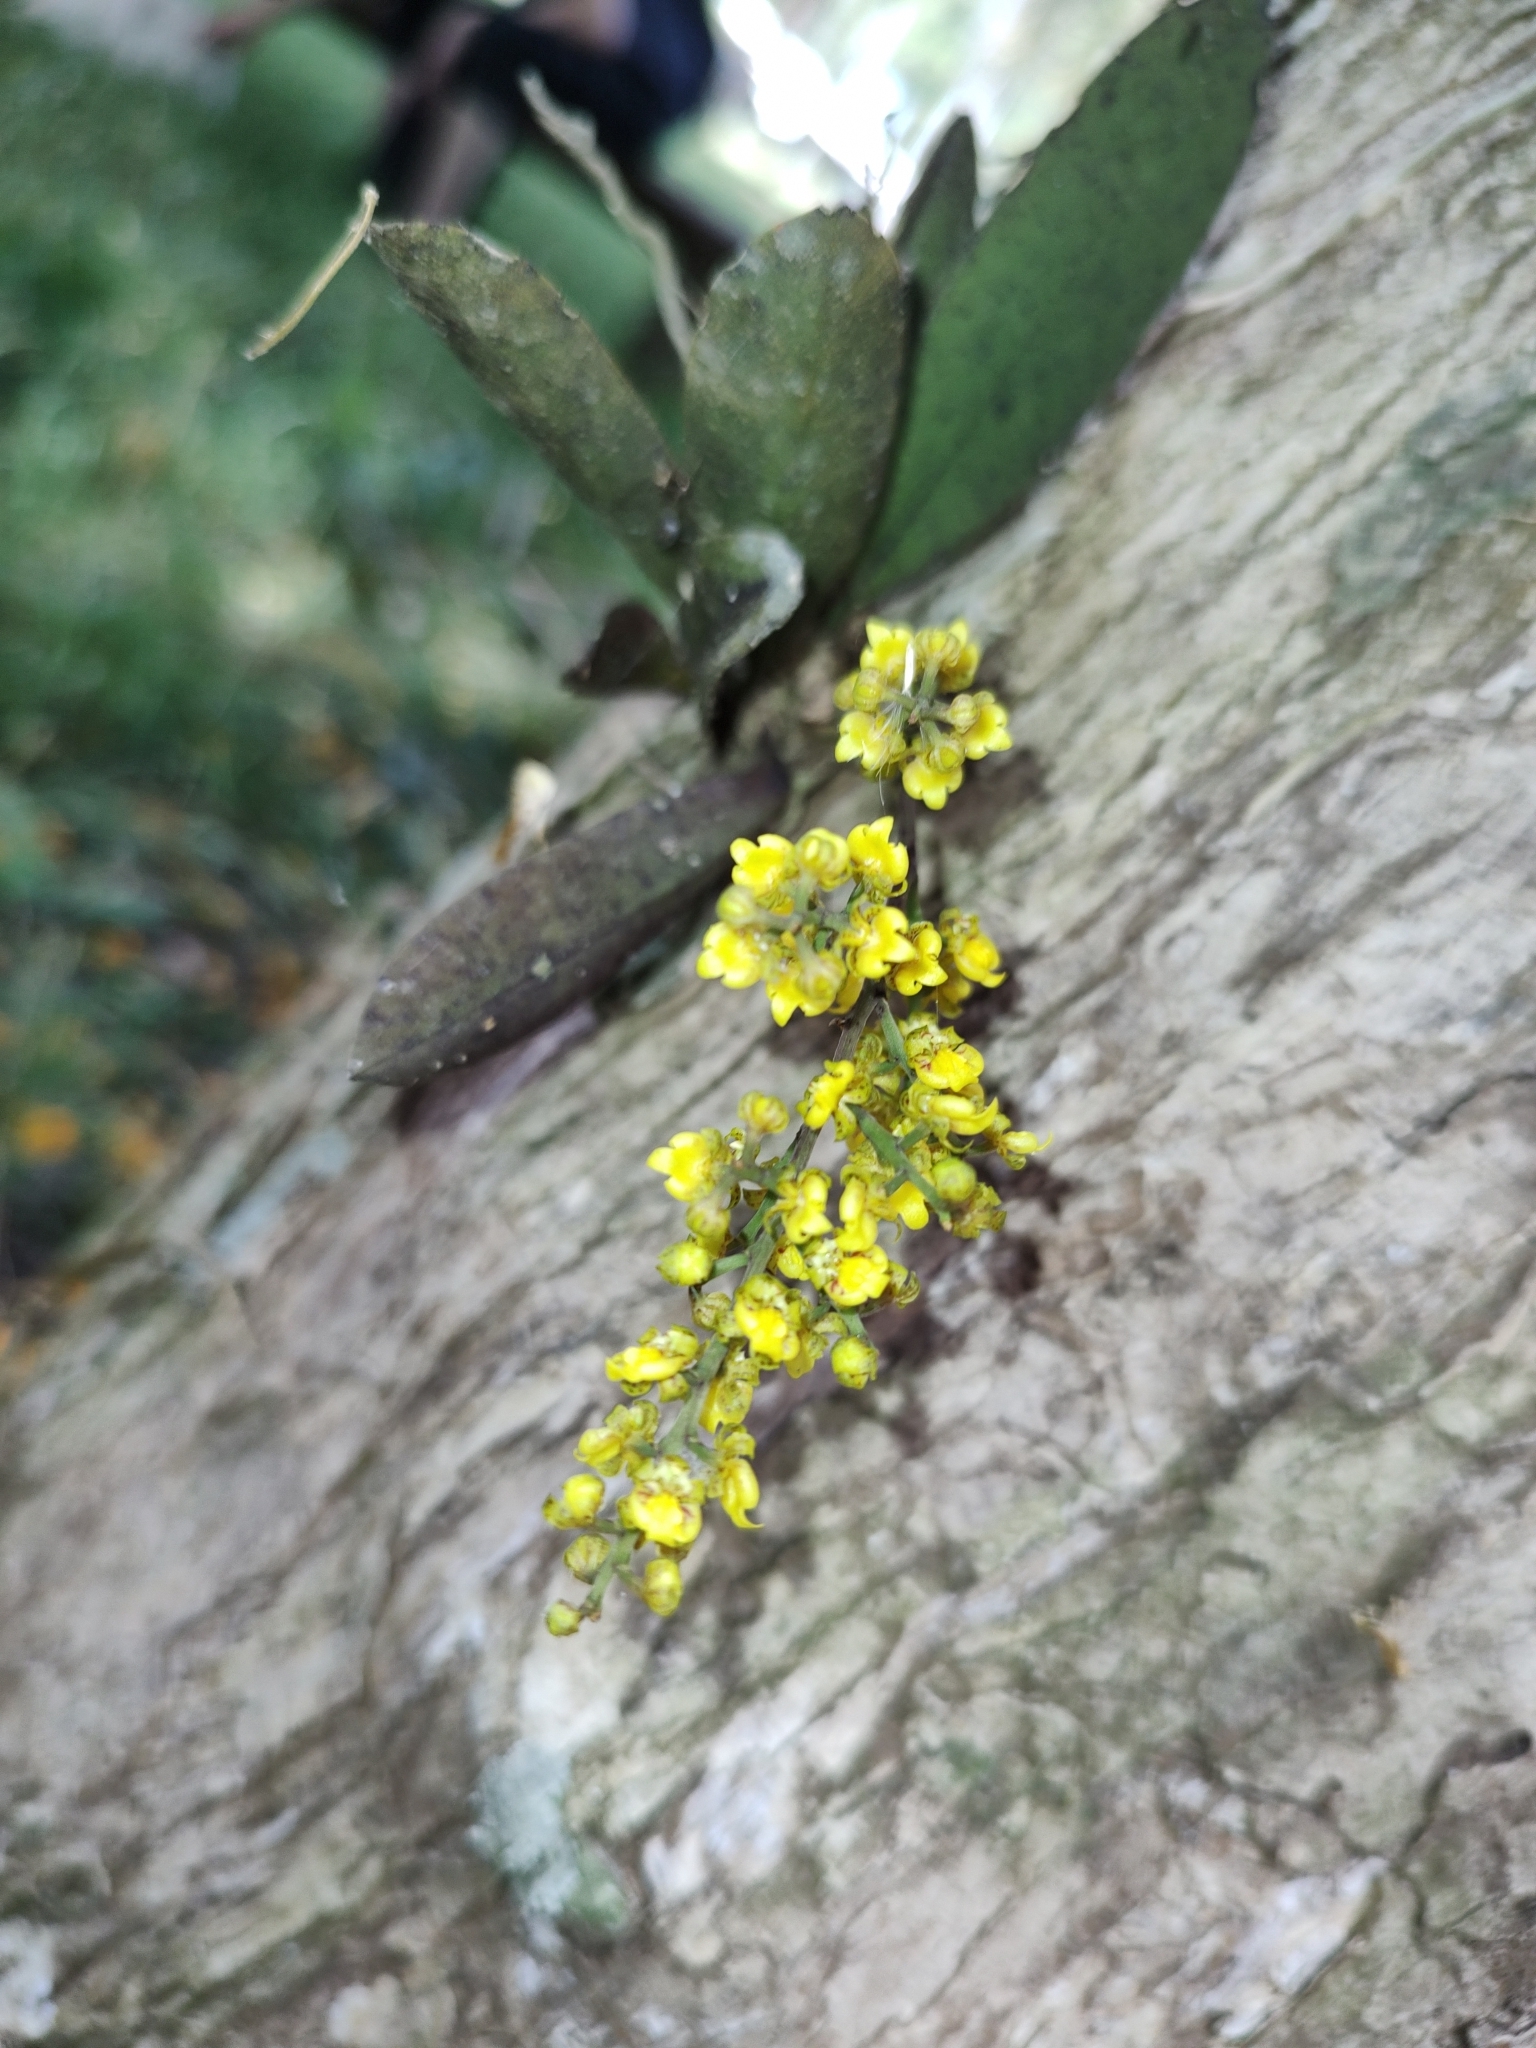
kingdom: Plantae
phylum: Tracheophyta
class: Liliopsida
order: Asparagales
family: Orchidaceae
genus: Trichocentrum
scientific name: Trichocentrum pumilum
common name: Mule-ear orchid
